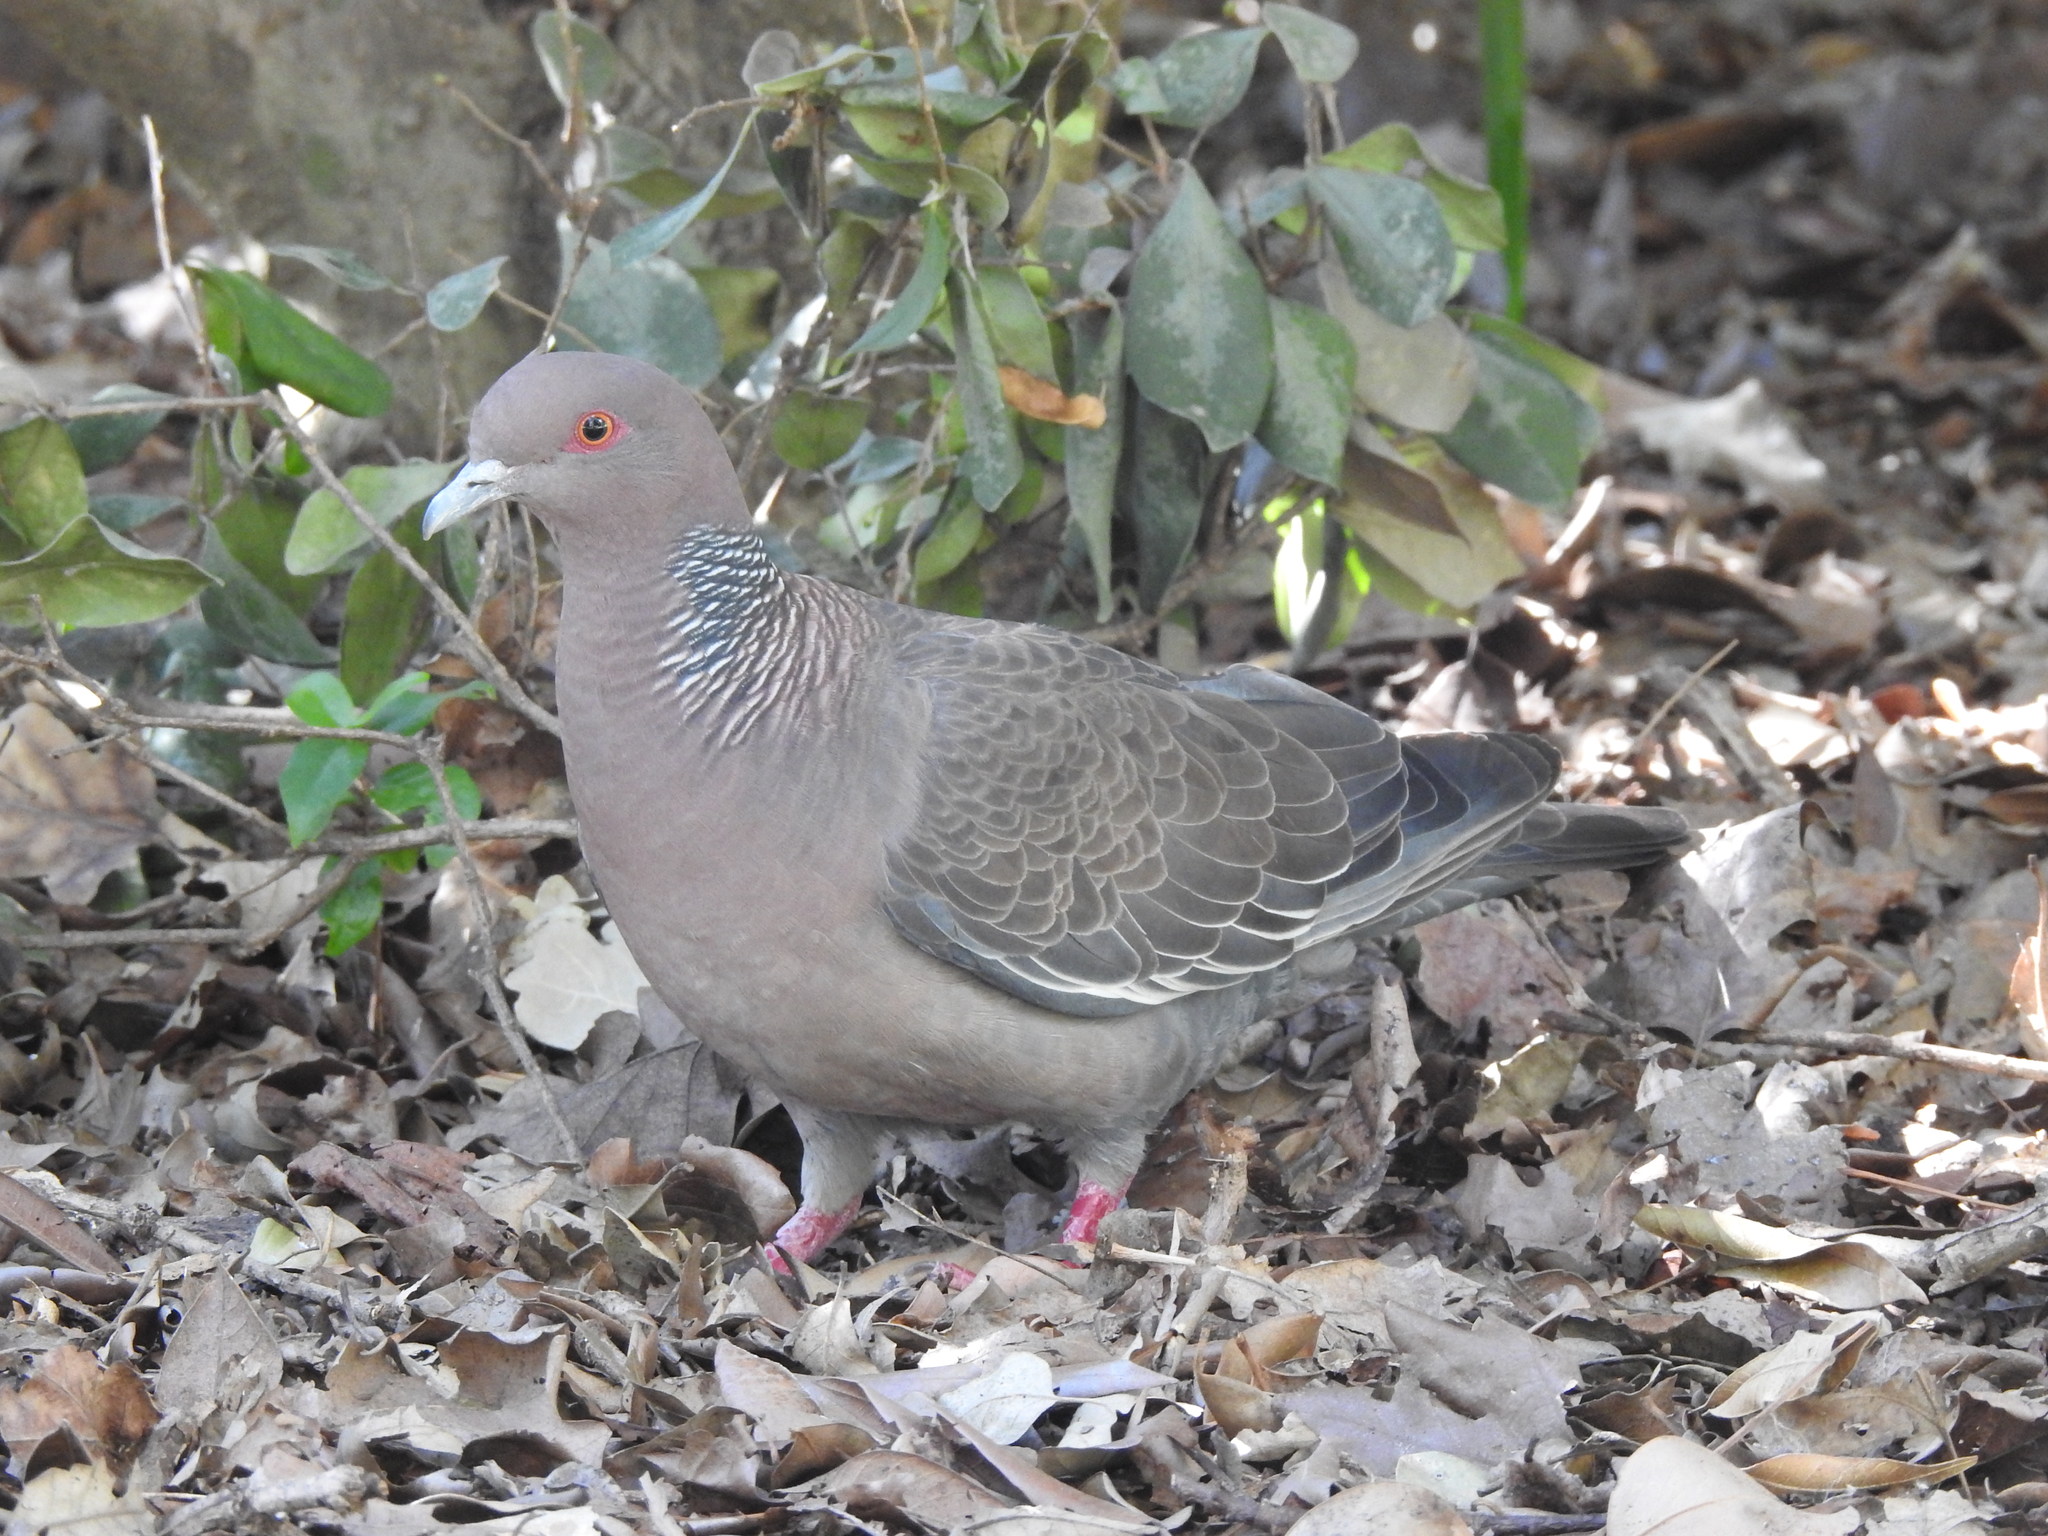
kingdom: Animalia
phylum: Chordata
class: Aves
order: Columbiformes
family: Columbidae
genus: Patagioenas
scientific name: Patagioenas picazuro
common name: Picazuro pigeon
